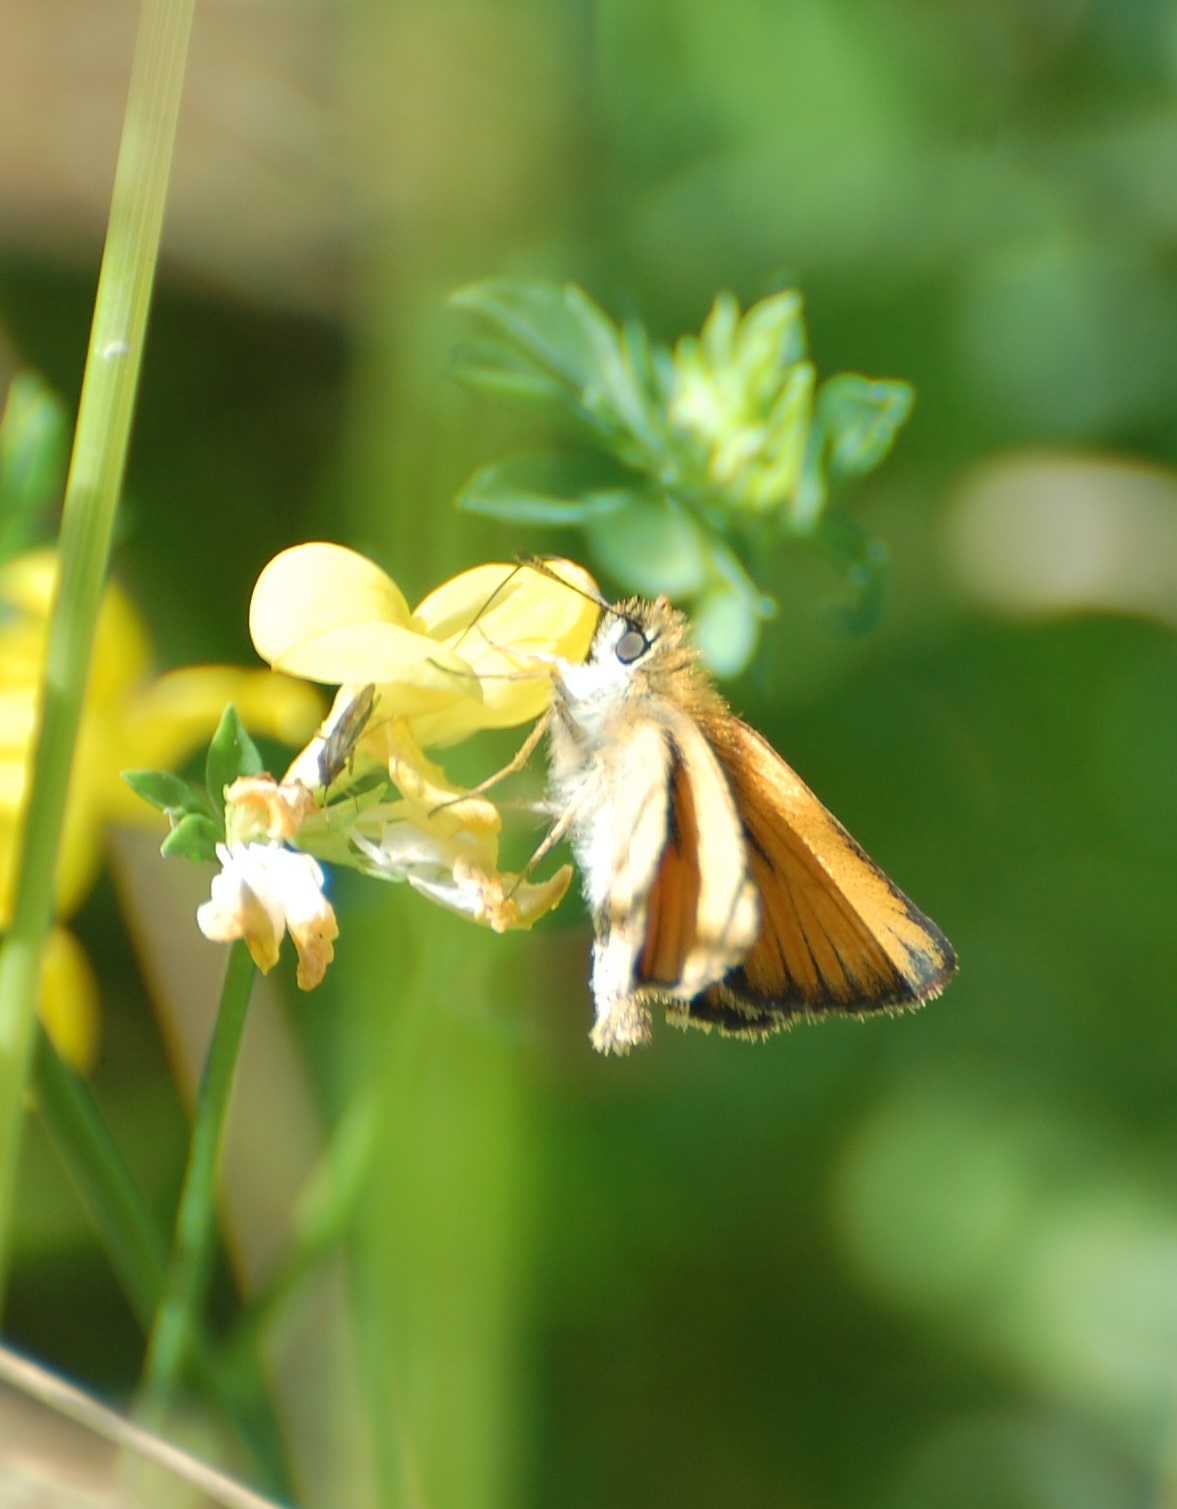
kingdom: Animalia
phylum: Arthropoda
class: Insecta
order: Lepidoptera
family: Hesperiidae
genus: Thymelicus
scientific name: Thymelicus lineola
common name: Essex skipper
